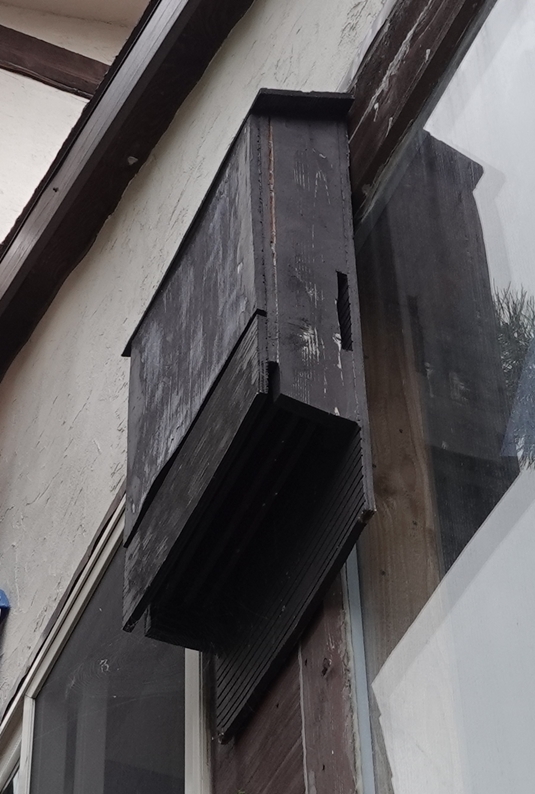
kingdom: Animalia
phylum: Chordata
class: Mammalia
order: Chiroptera
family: Vespertilionidae
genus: Eptesicus
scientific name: Eptesicus fuscus
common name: Big brown bat
